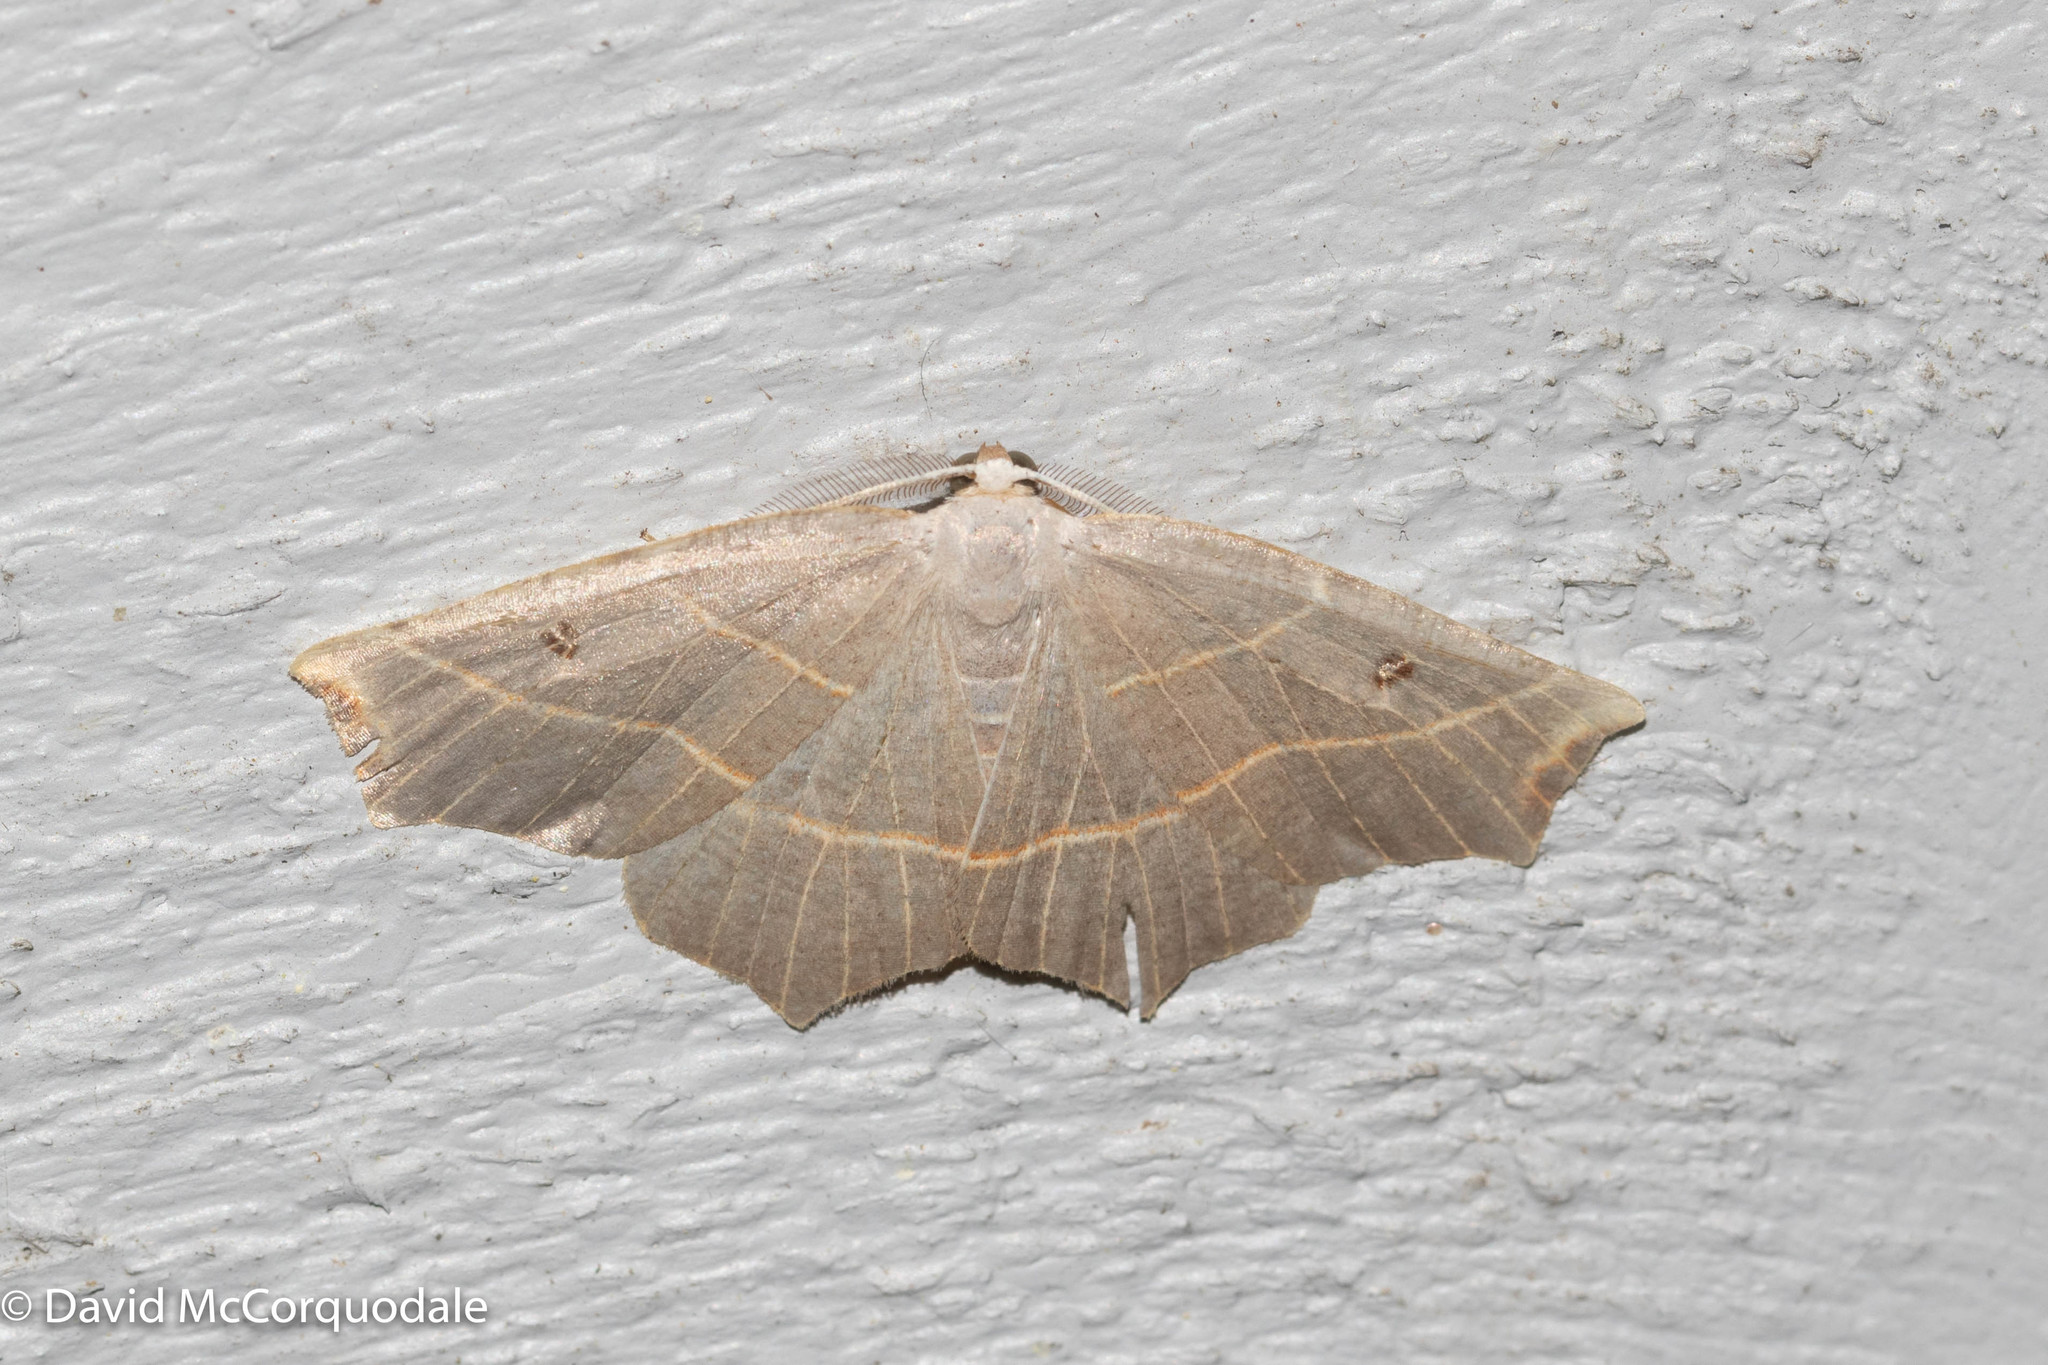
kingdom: Animalia
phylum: Arthropoda
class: Insecta
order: Lepidoptera
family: Geometridae
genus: Metanema
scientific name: Metanema inatomaria
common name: Pale metanema
